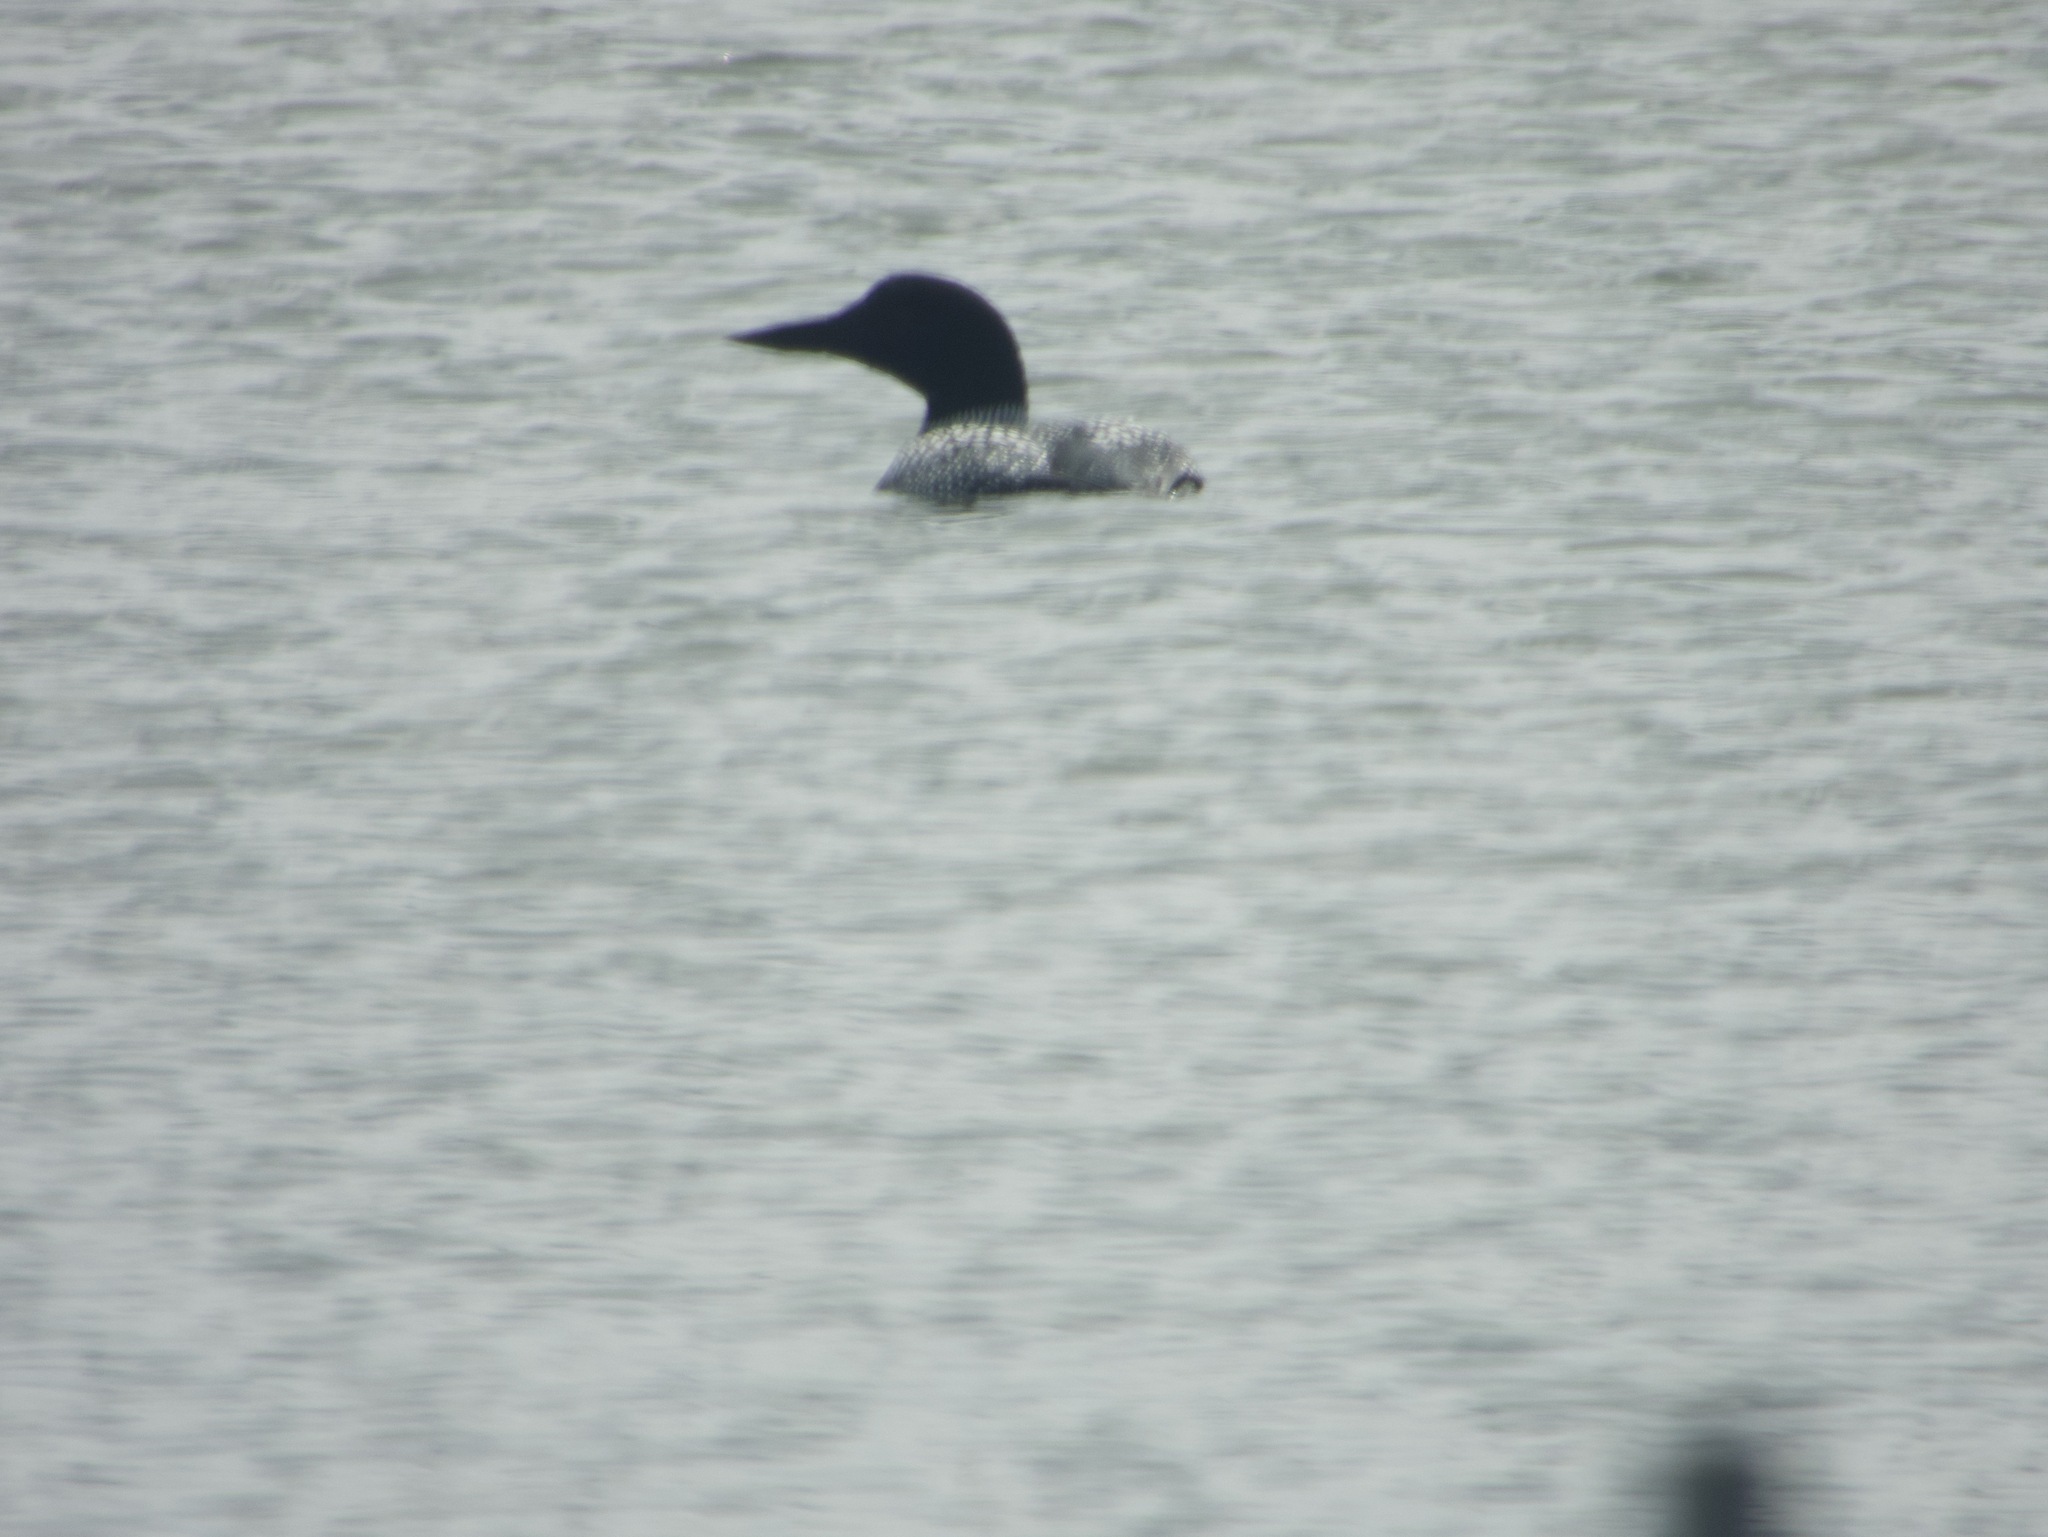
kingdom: Animalia
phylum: Chordata
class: Aves
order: Gaviiformes
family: Gaviidae
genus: Gavia
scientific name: Gavia immer
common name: Common loon
